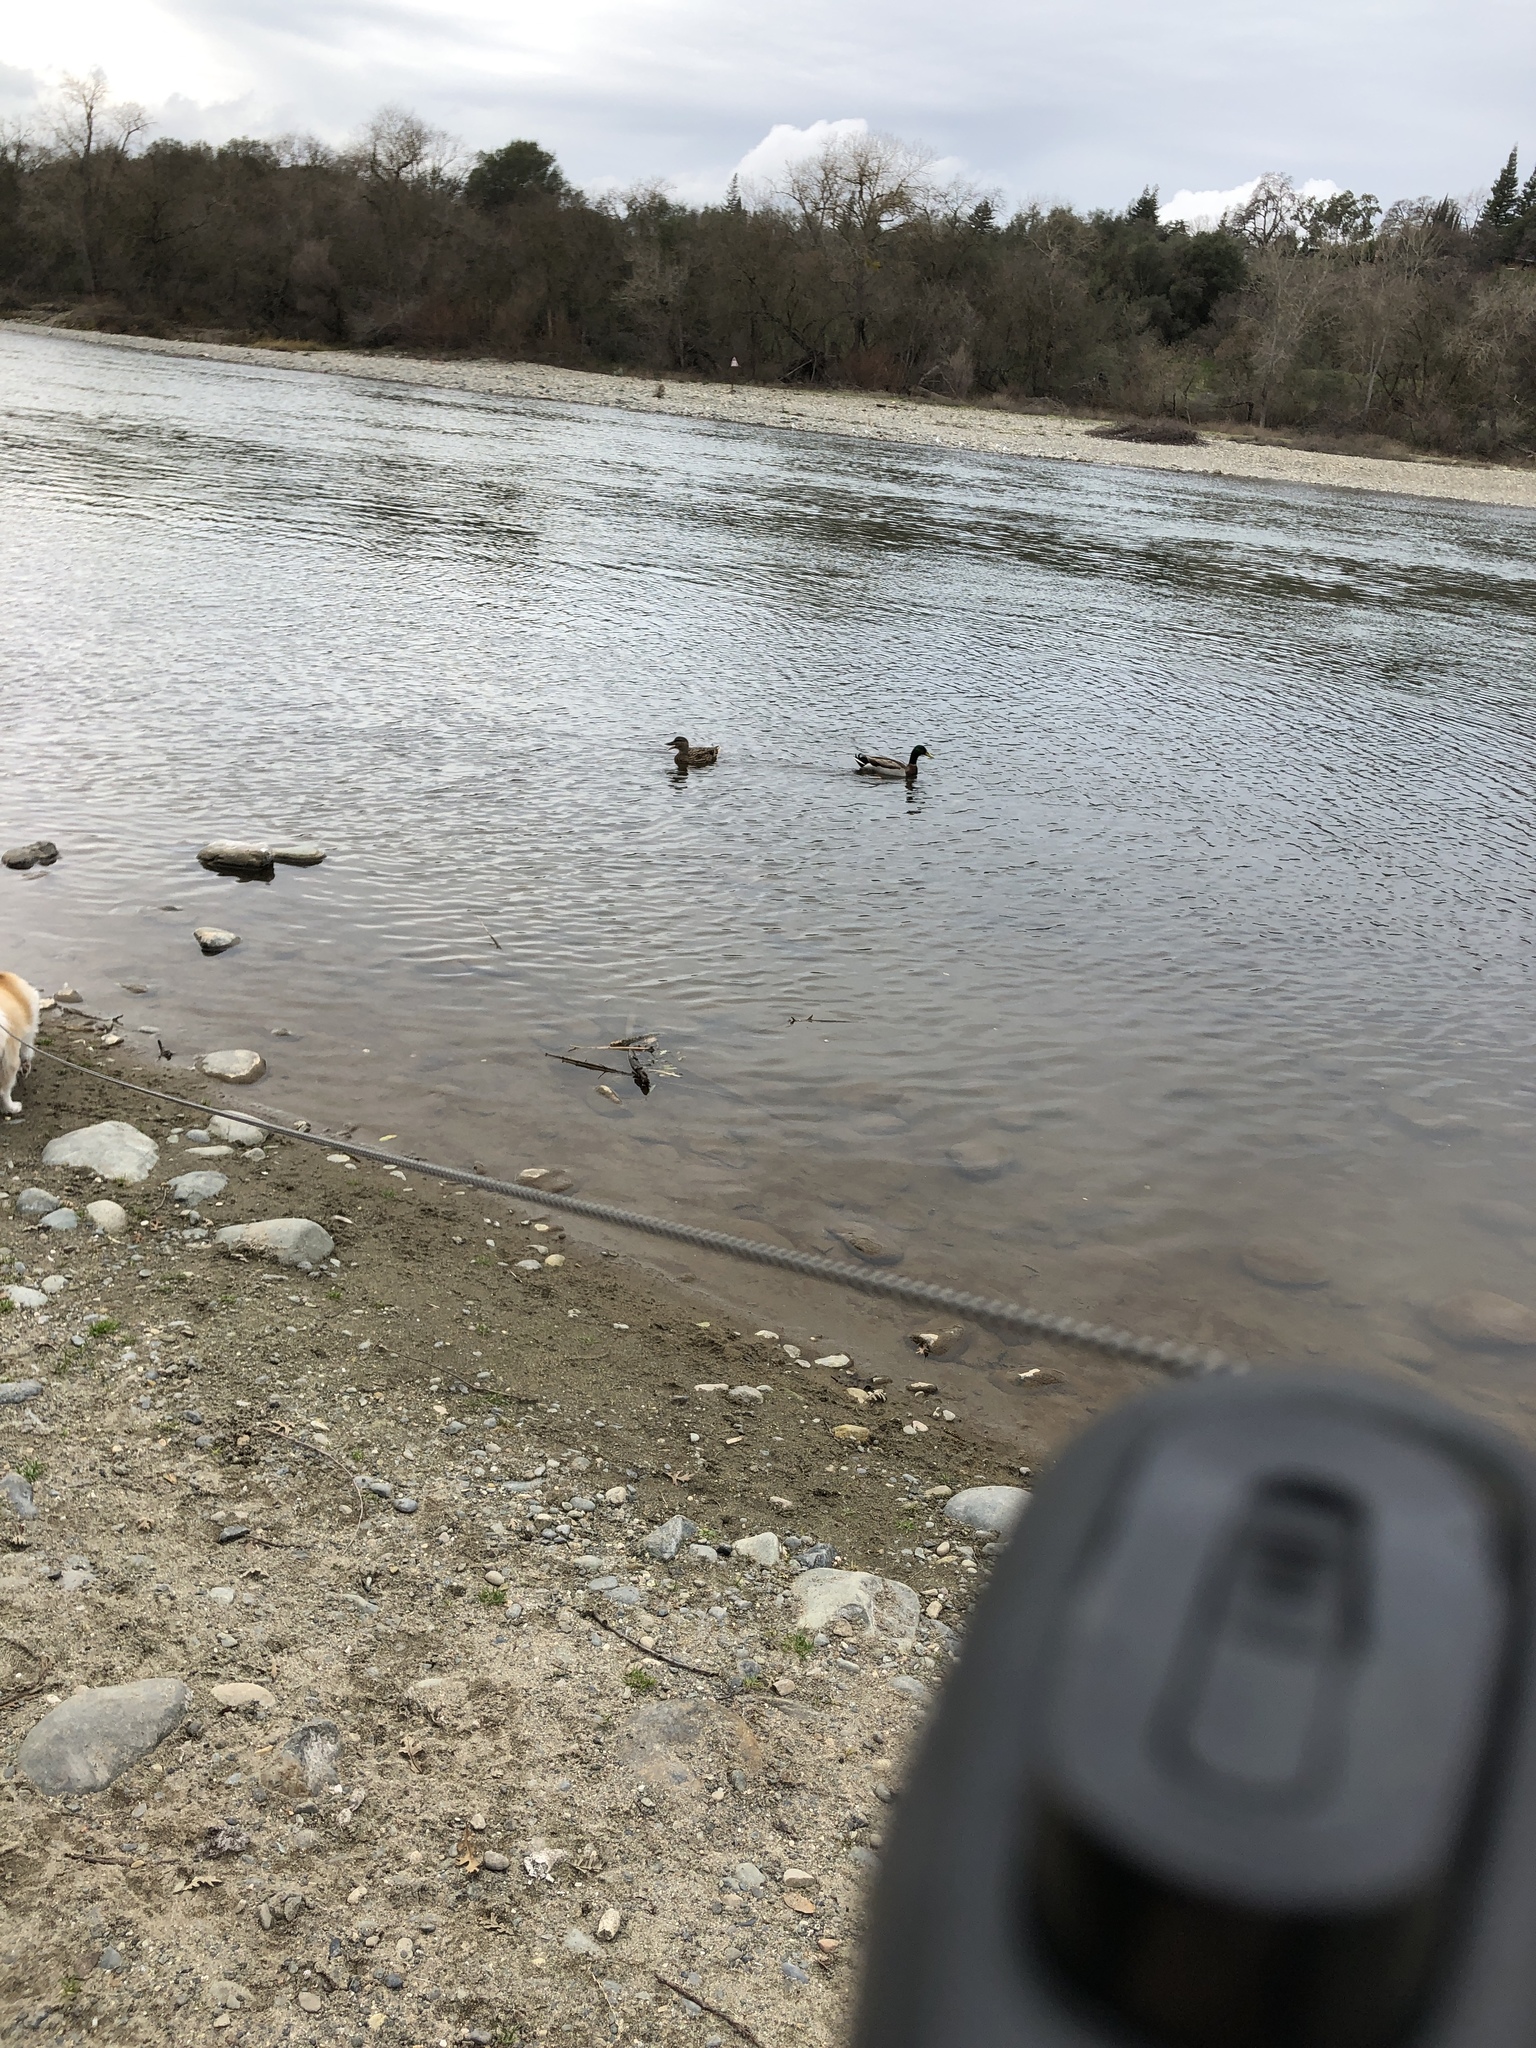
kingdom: Animalia
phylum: Chordata
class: Aves
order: Anseriformes
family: Anatidae
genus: Anas
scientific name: Anas platyrhynchos
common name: Mallard
